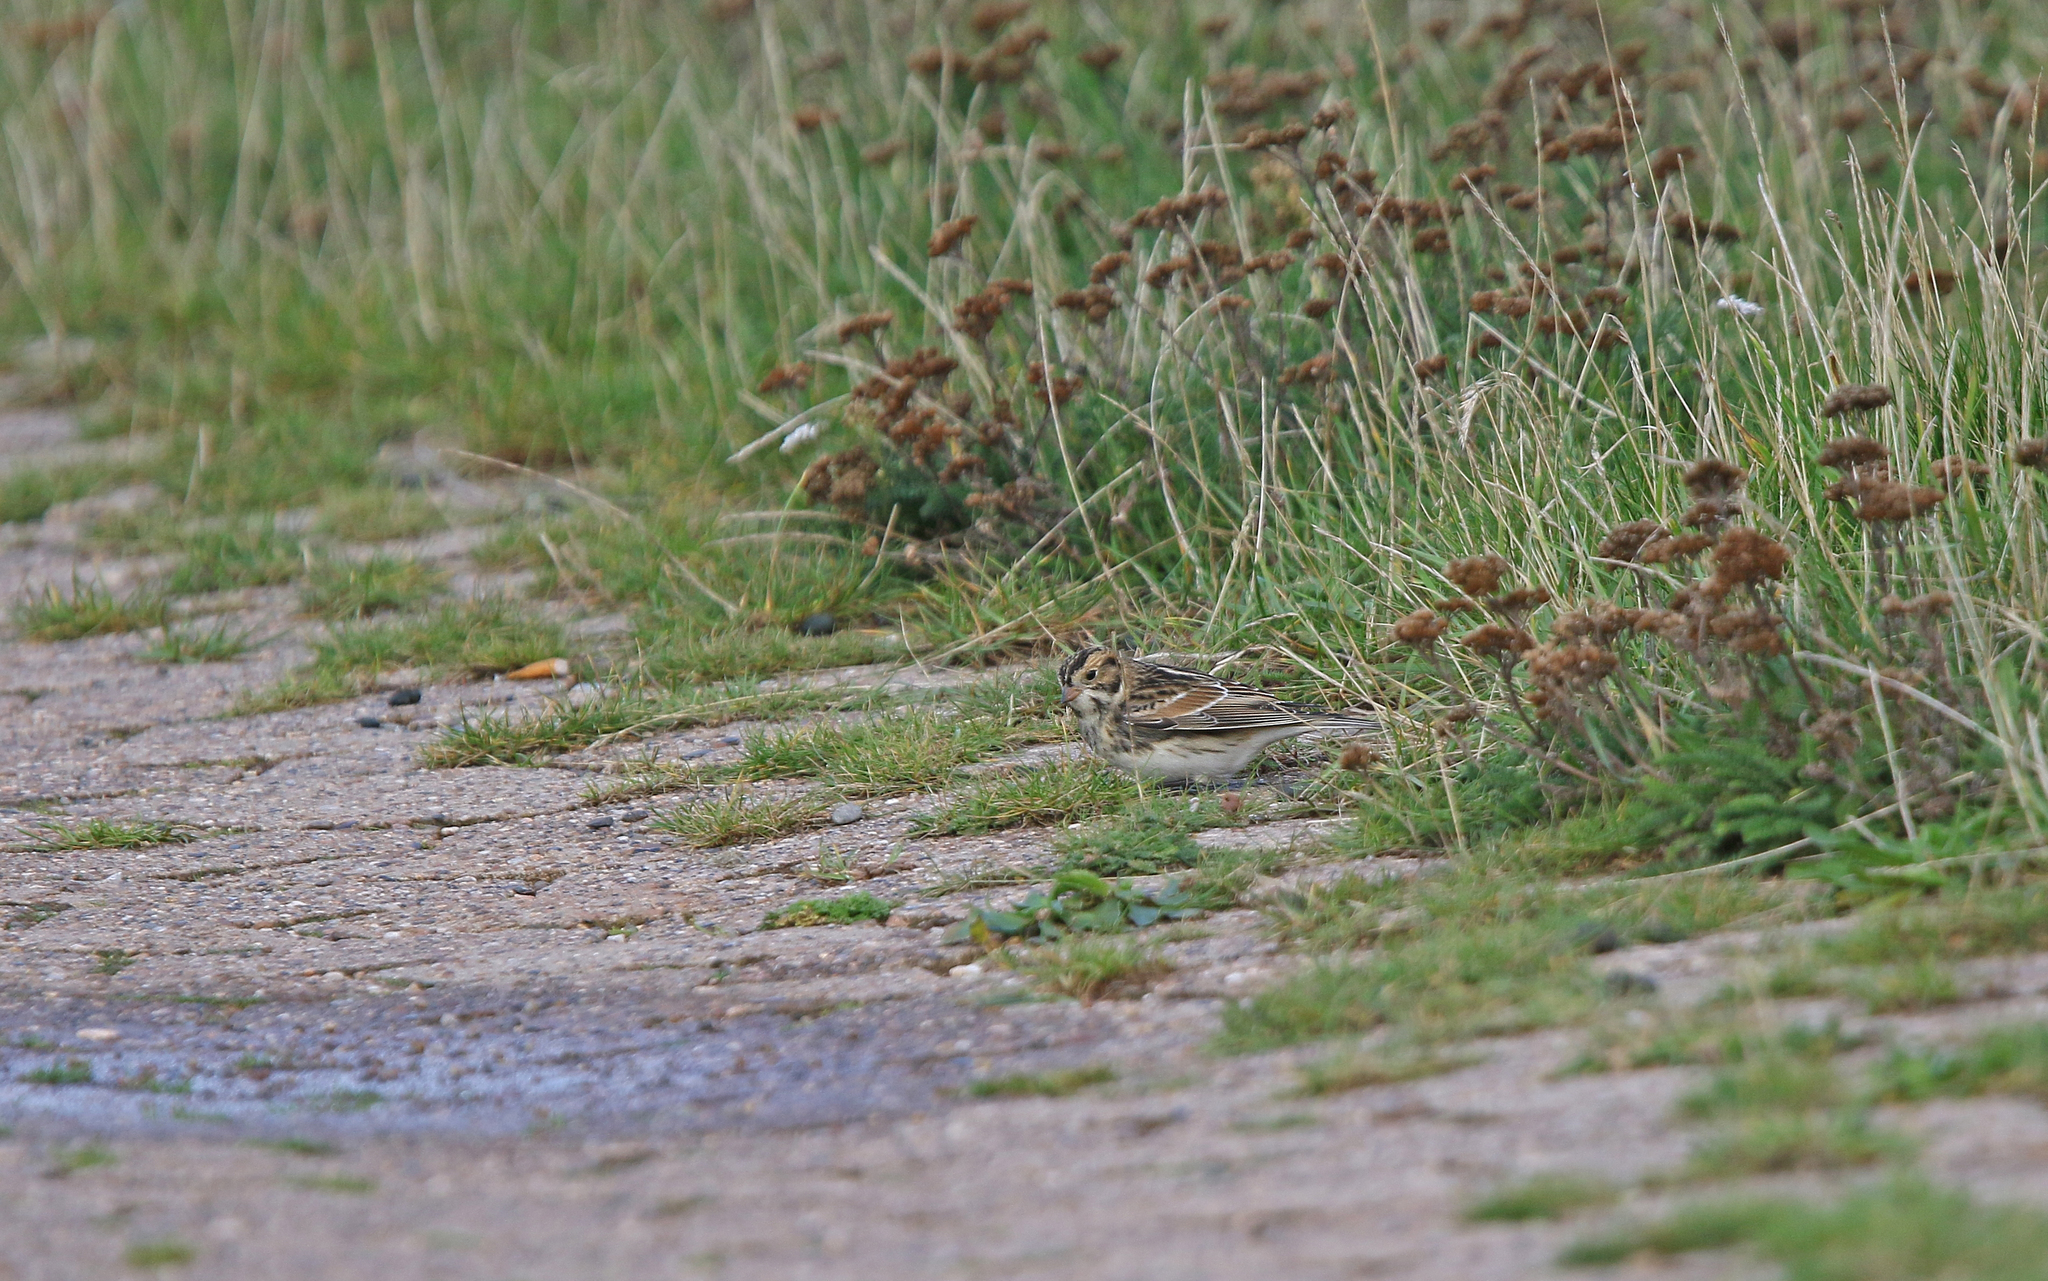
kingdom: Animalia
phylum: Chordata
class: Aves
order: Passeriformes
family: Calcariidae
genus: Calcarius
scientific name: Calcarius lapponicus
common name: Lapland longspur
